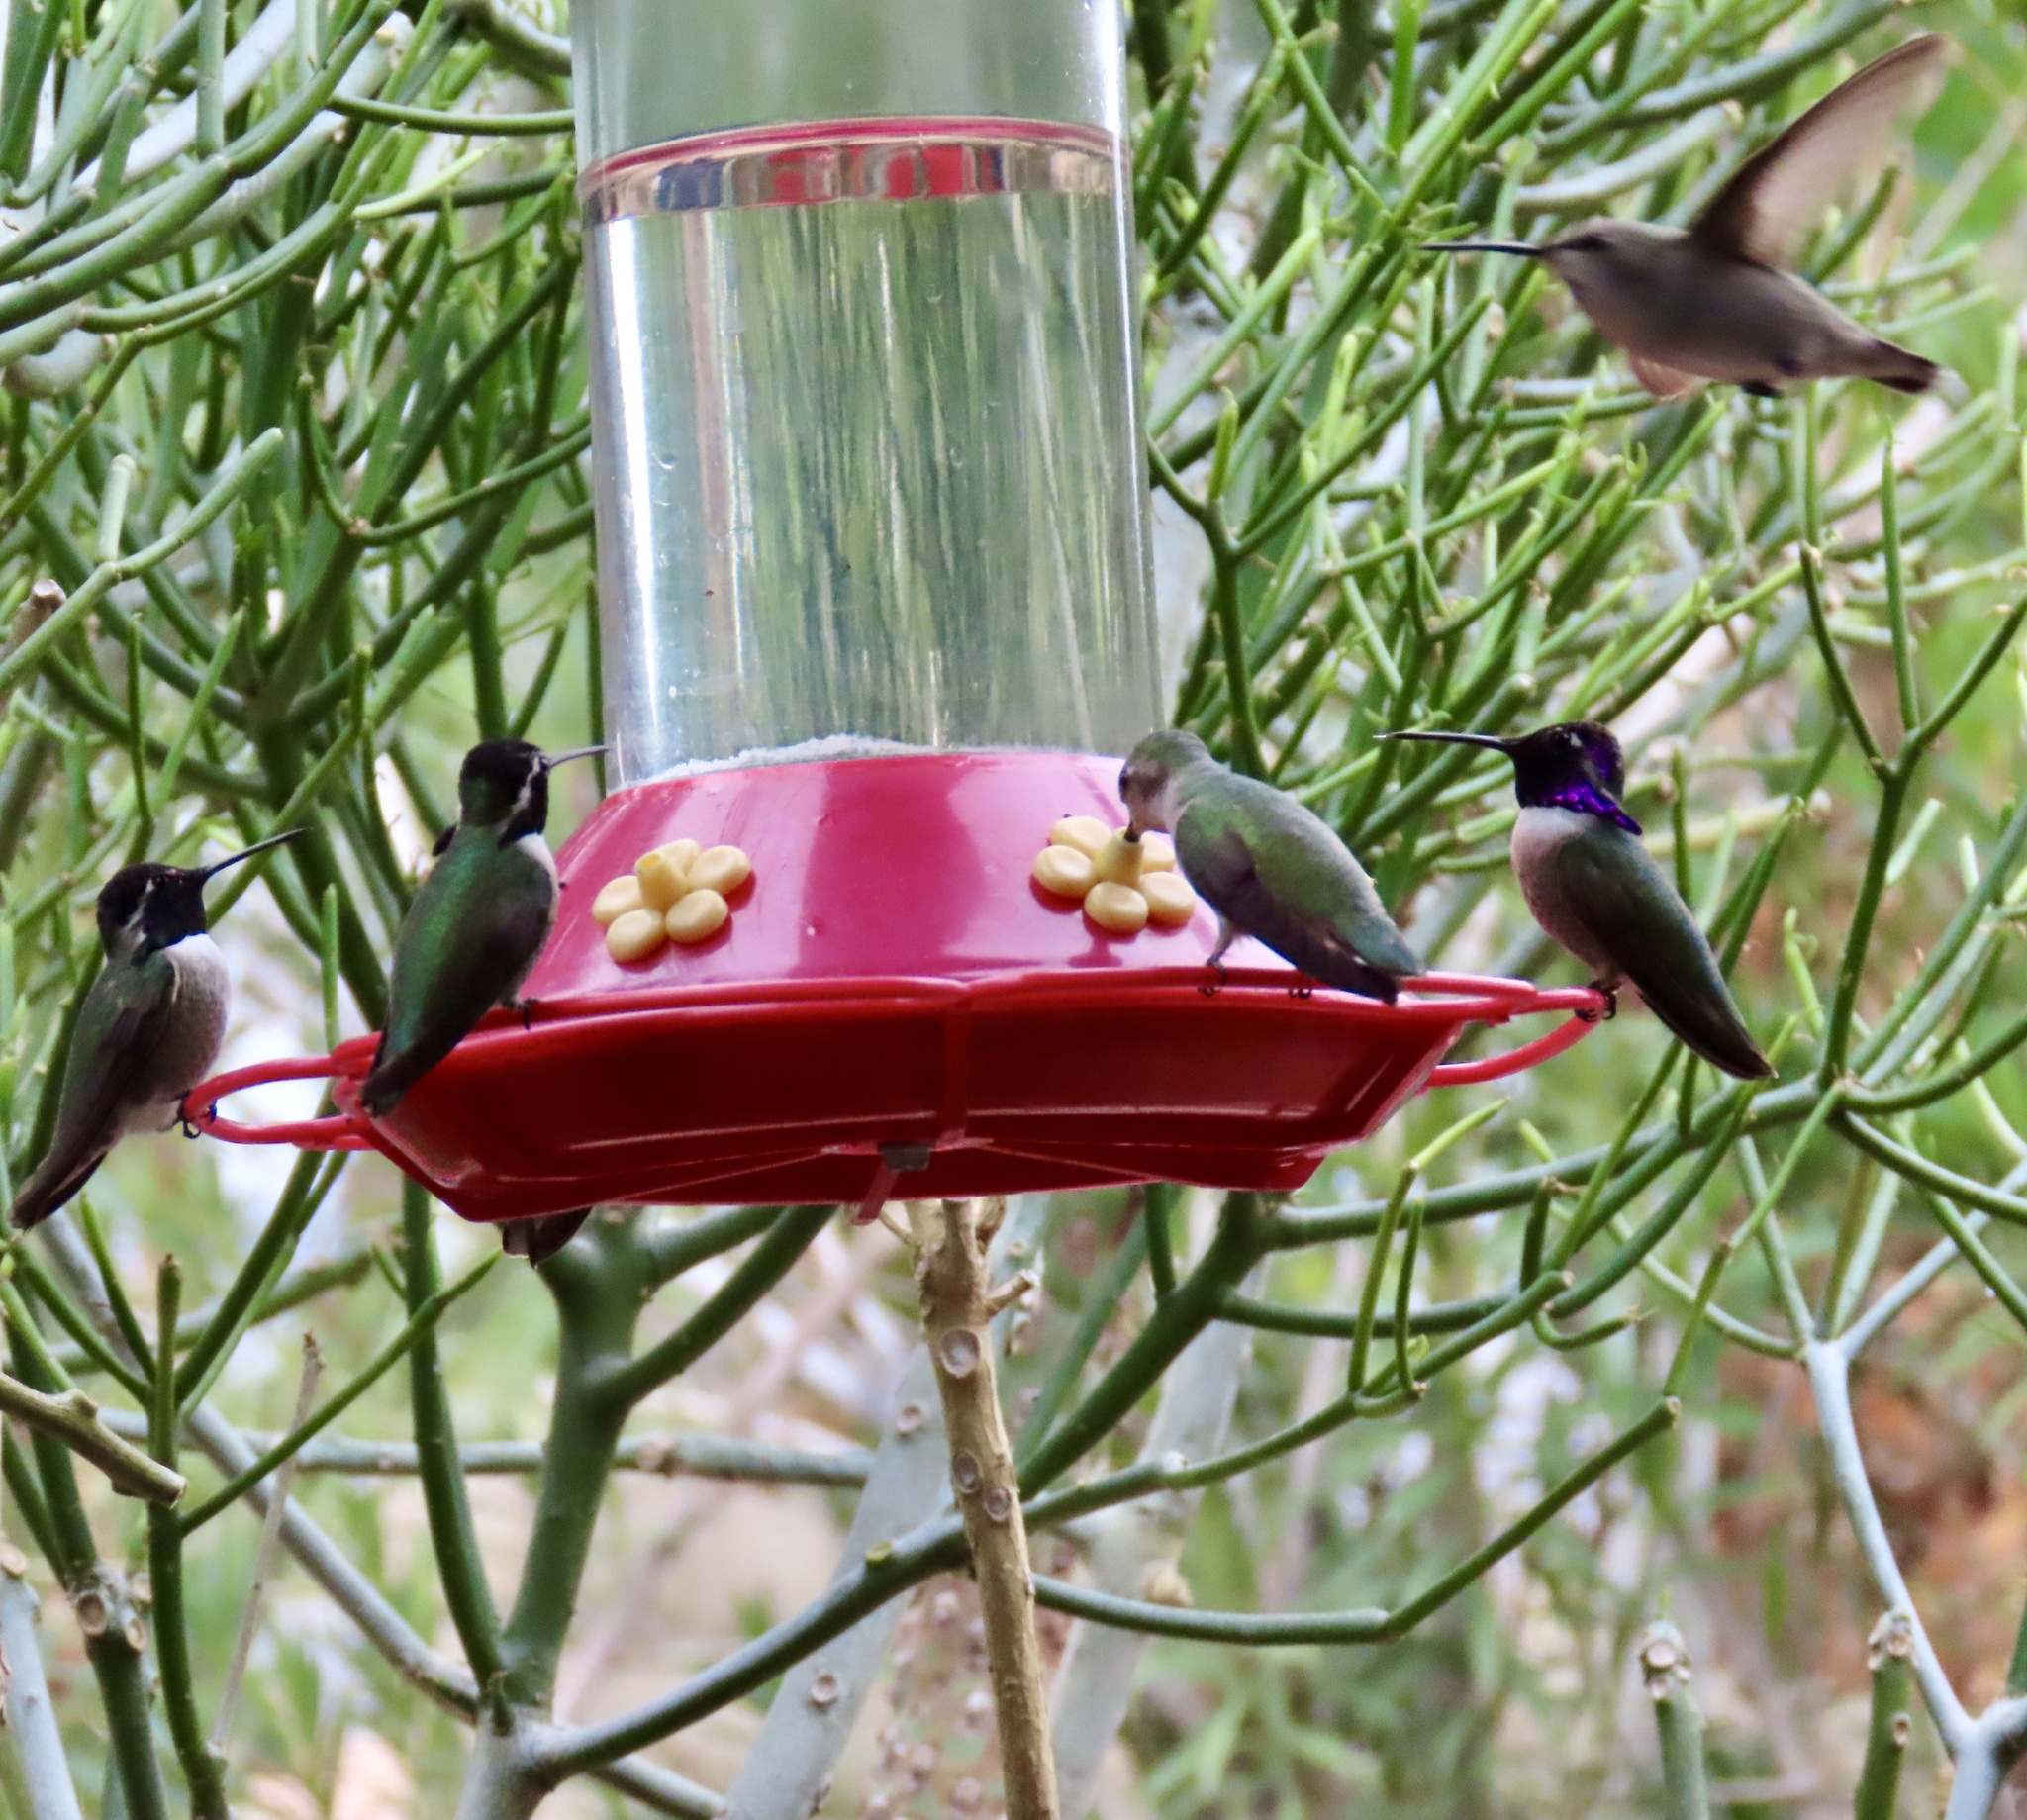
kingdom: Animalia
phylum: Chordata
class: Aves
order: Apodiformes
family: Trochilidae
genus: Calypte
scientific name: Calypte costae
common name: Costa's hummingbird
